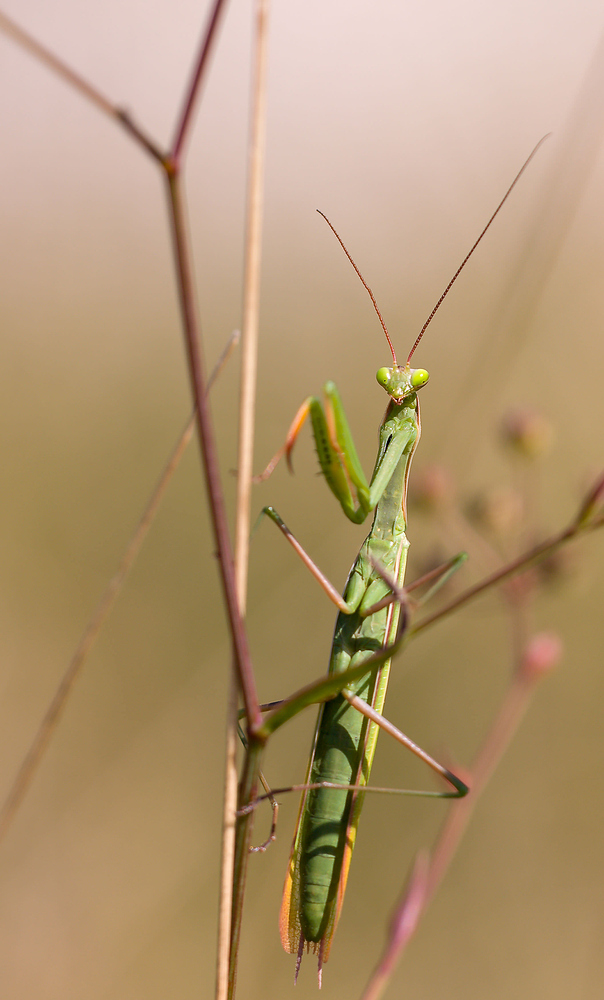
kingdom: Animalia
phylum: Arthropoda
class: Insecta
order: Mantodea
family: Mantidae
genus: Mantis
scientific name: Mantis religiosa
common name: Praying mantis
